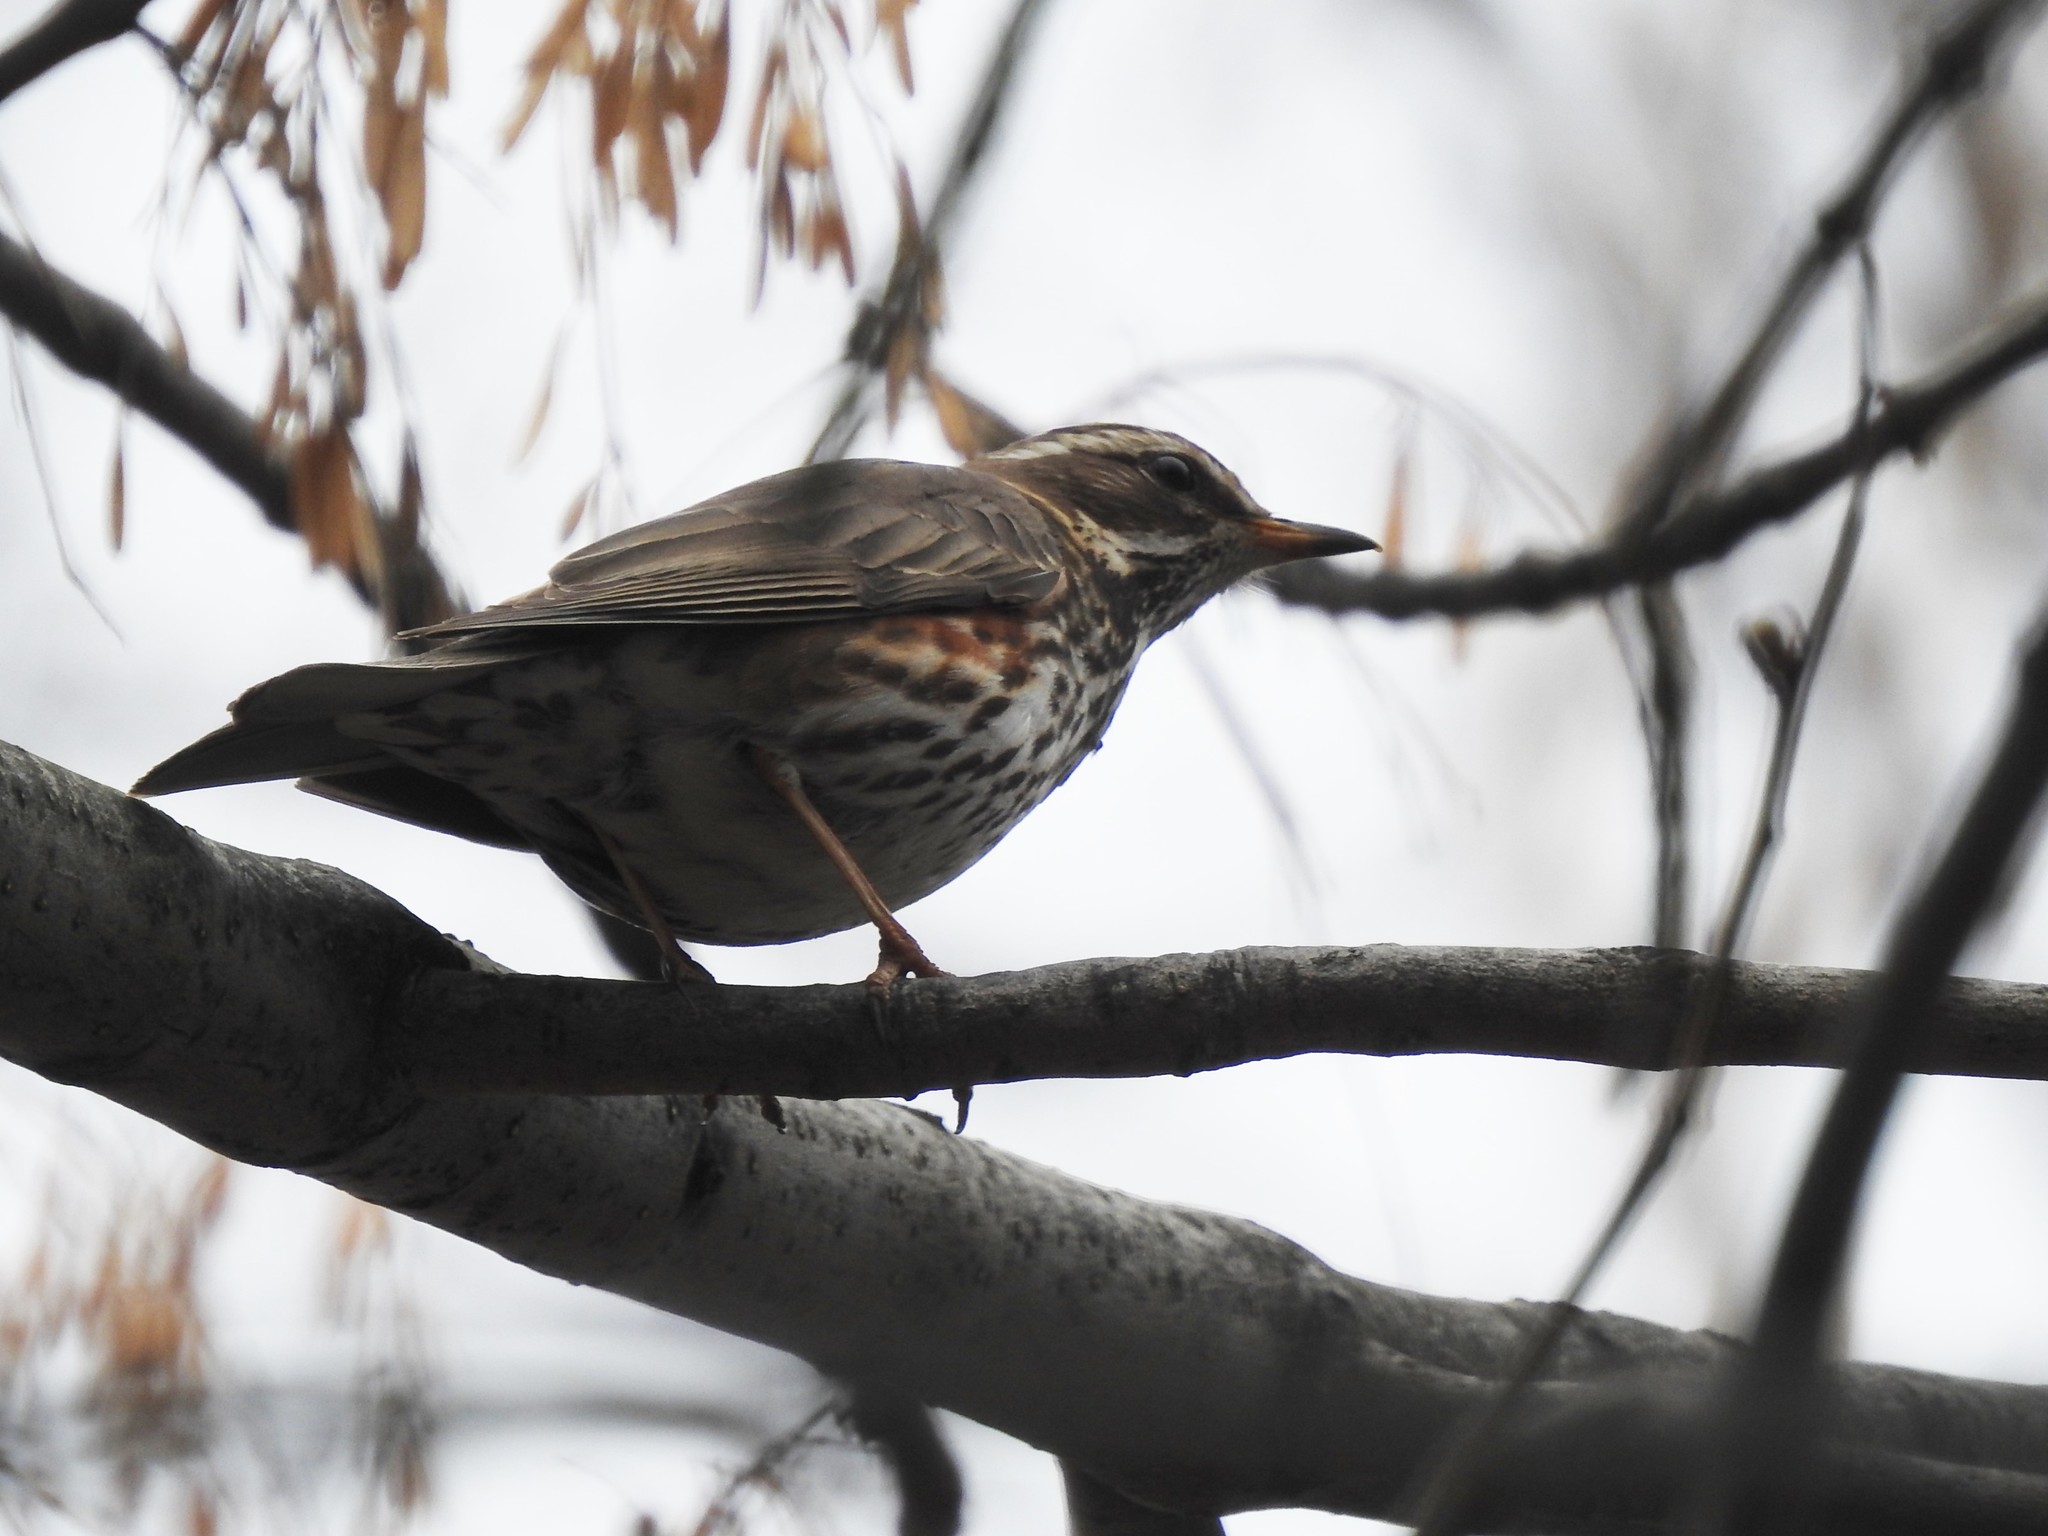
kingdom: Animalia
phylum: Chordata
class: Aves
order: Passeriformes
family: Turdidae
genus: Turdus
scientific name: Turdus iliacus
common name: Redwing
